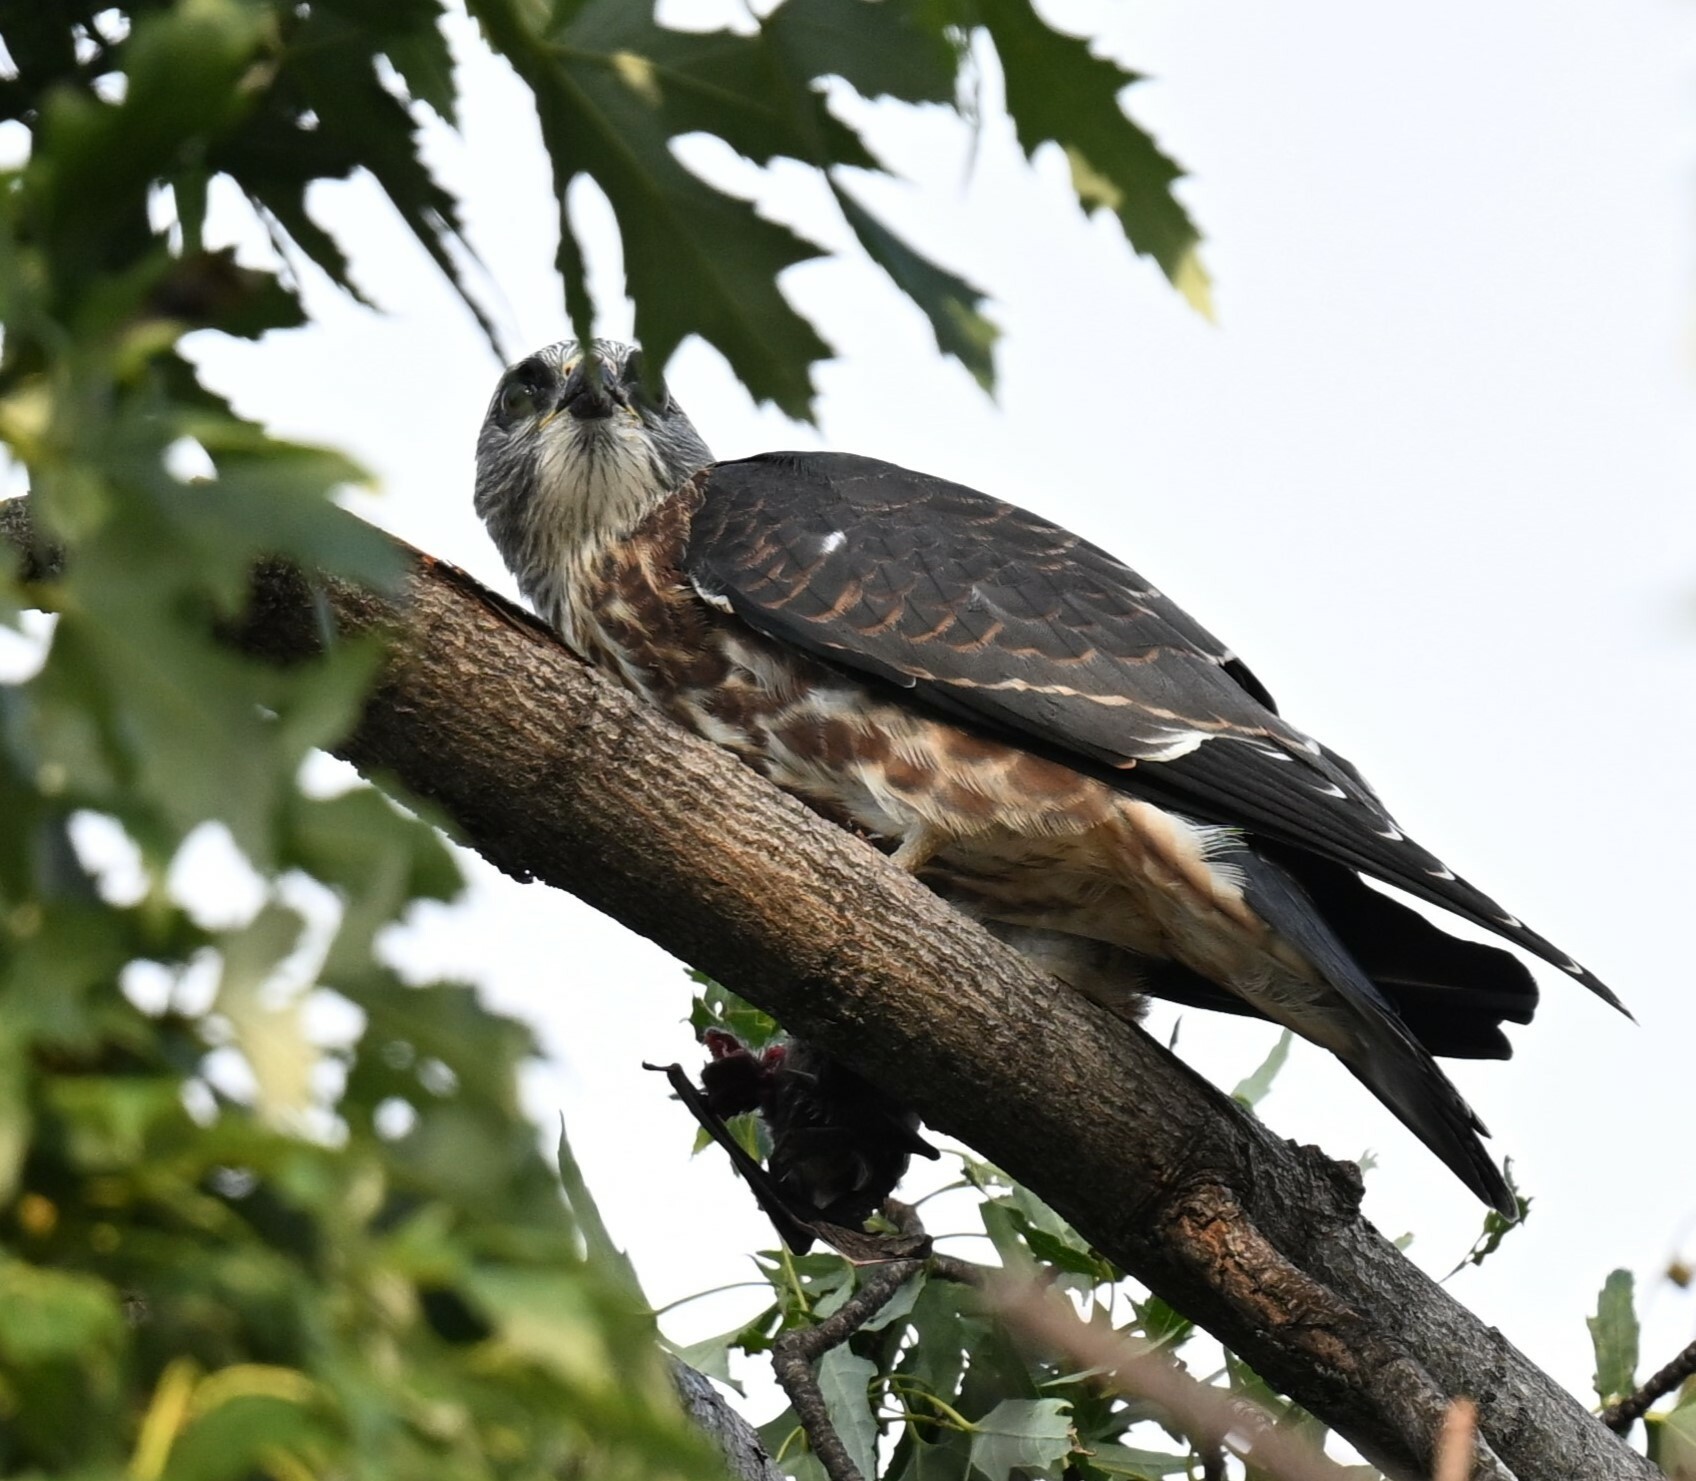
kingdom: Animalia
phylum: Chordata
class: Aves
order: Accipitriformes
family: Accipitridae
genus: Ictinia
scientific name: Ictinia mississippiensis
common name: Mississippi kite
